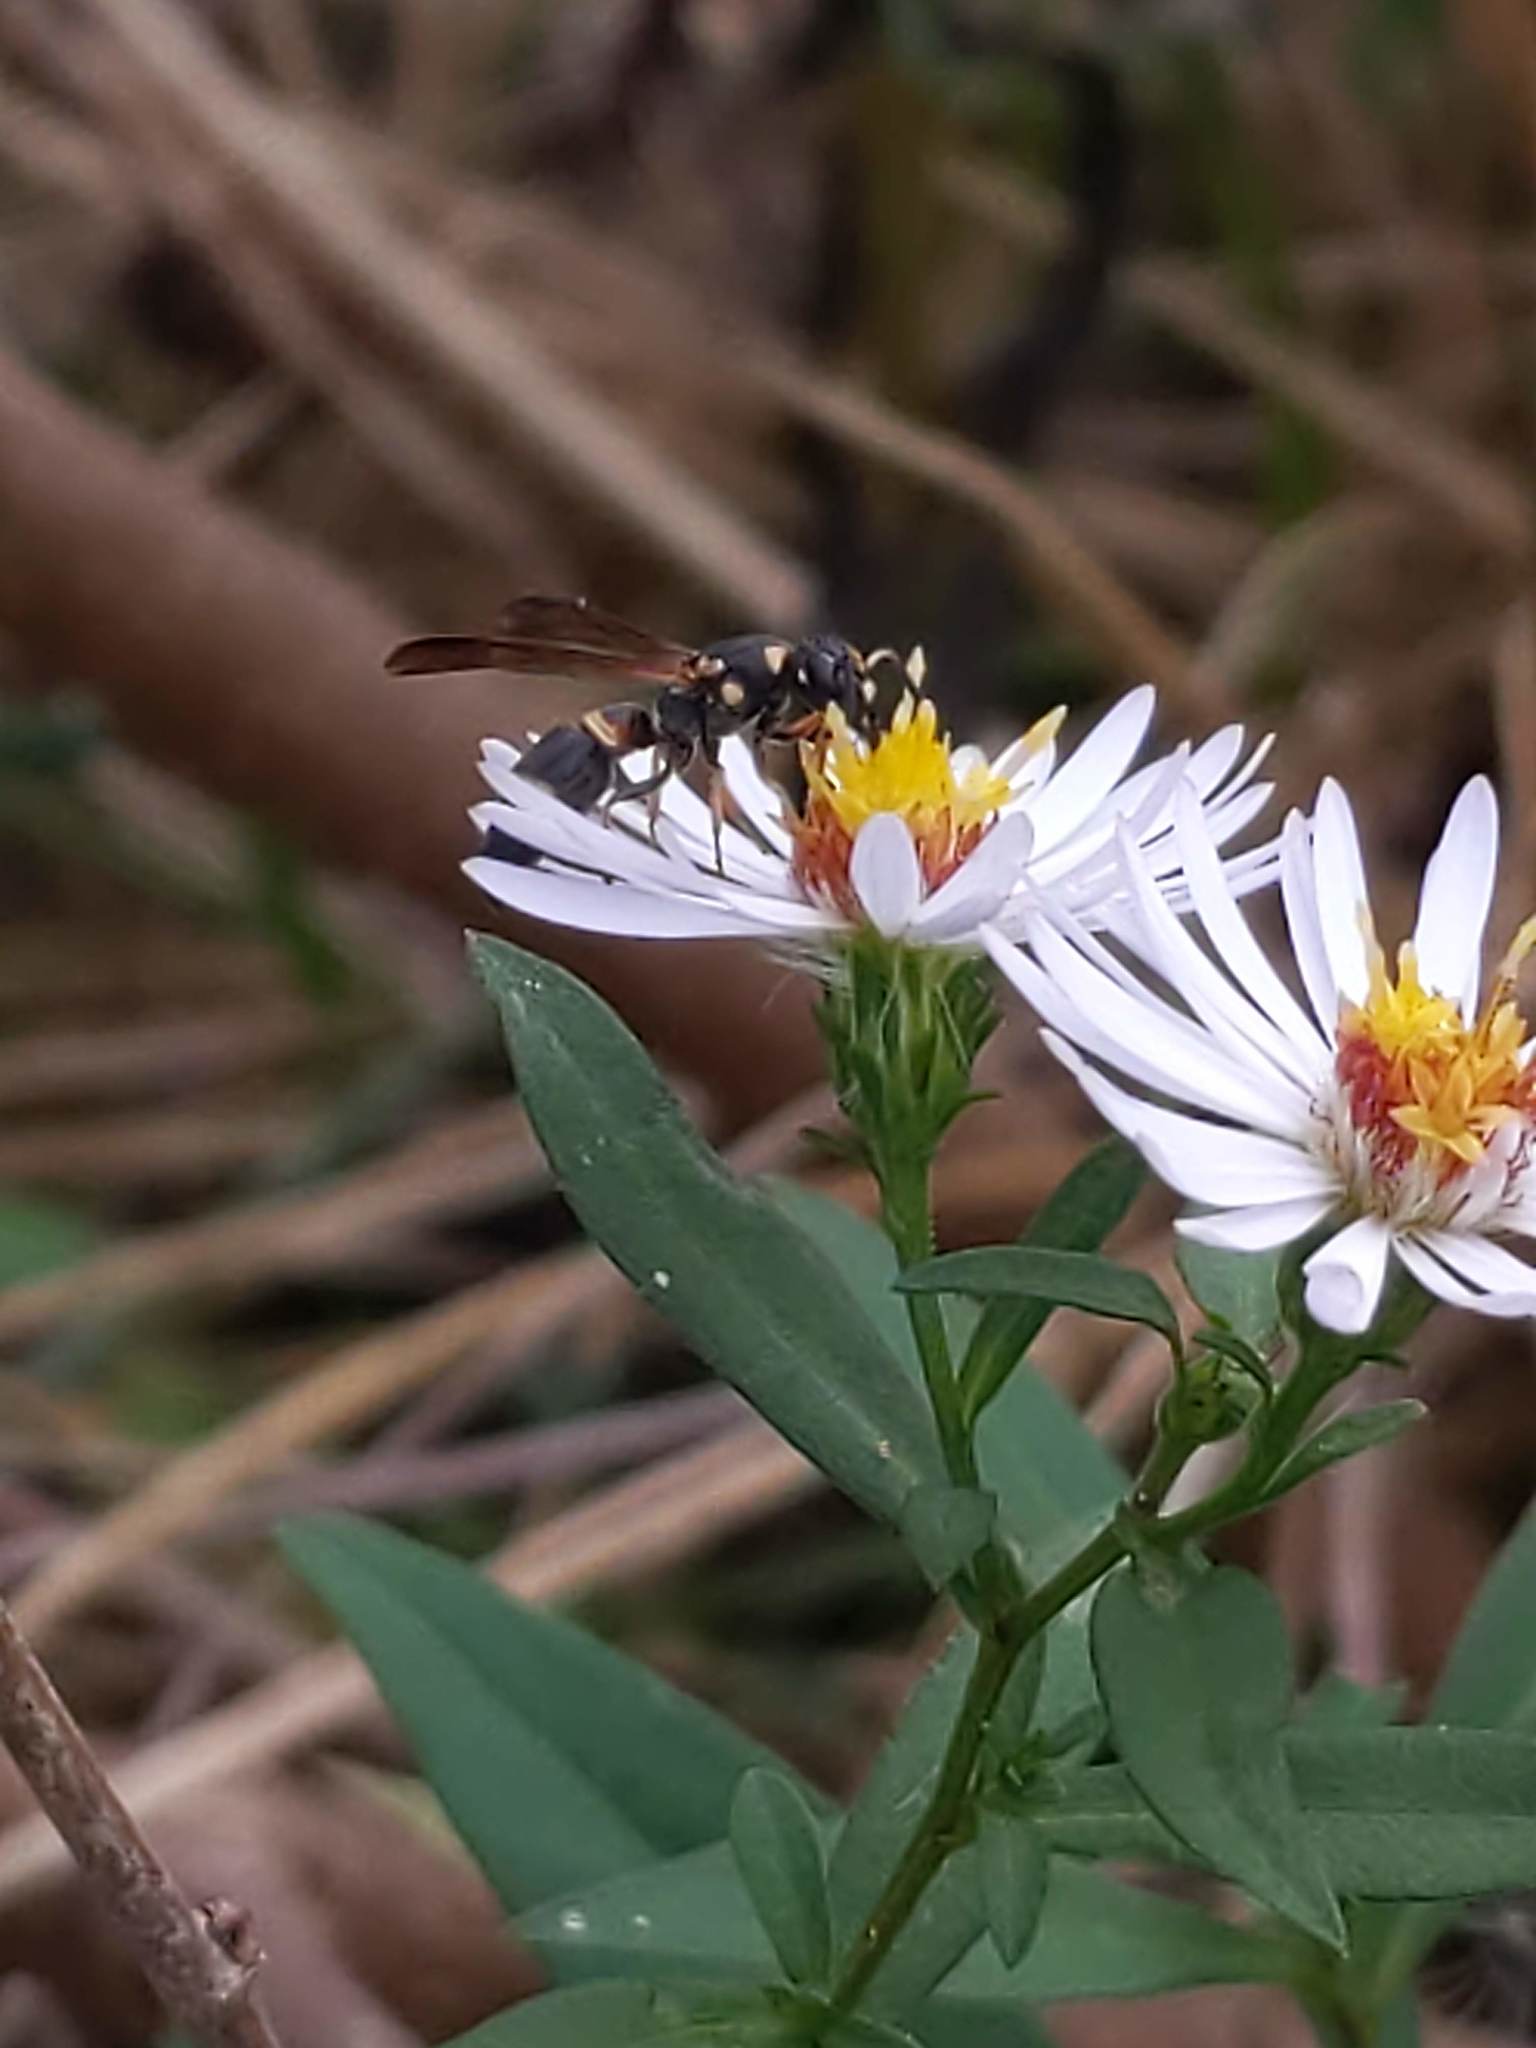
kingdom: Animalia
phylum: Arthropoda
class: Insecta
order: Hymenoptera
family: Eumenidae
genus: Parancistrocerus
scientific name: Parancistrocerus perennis
